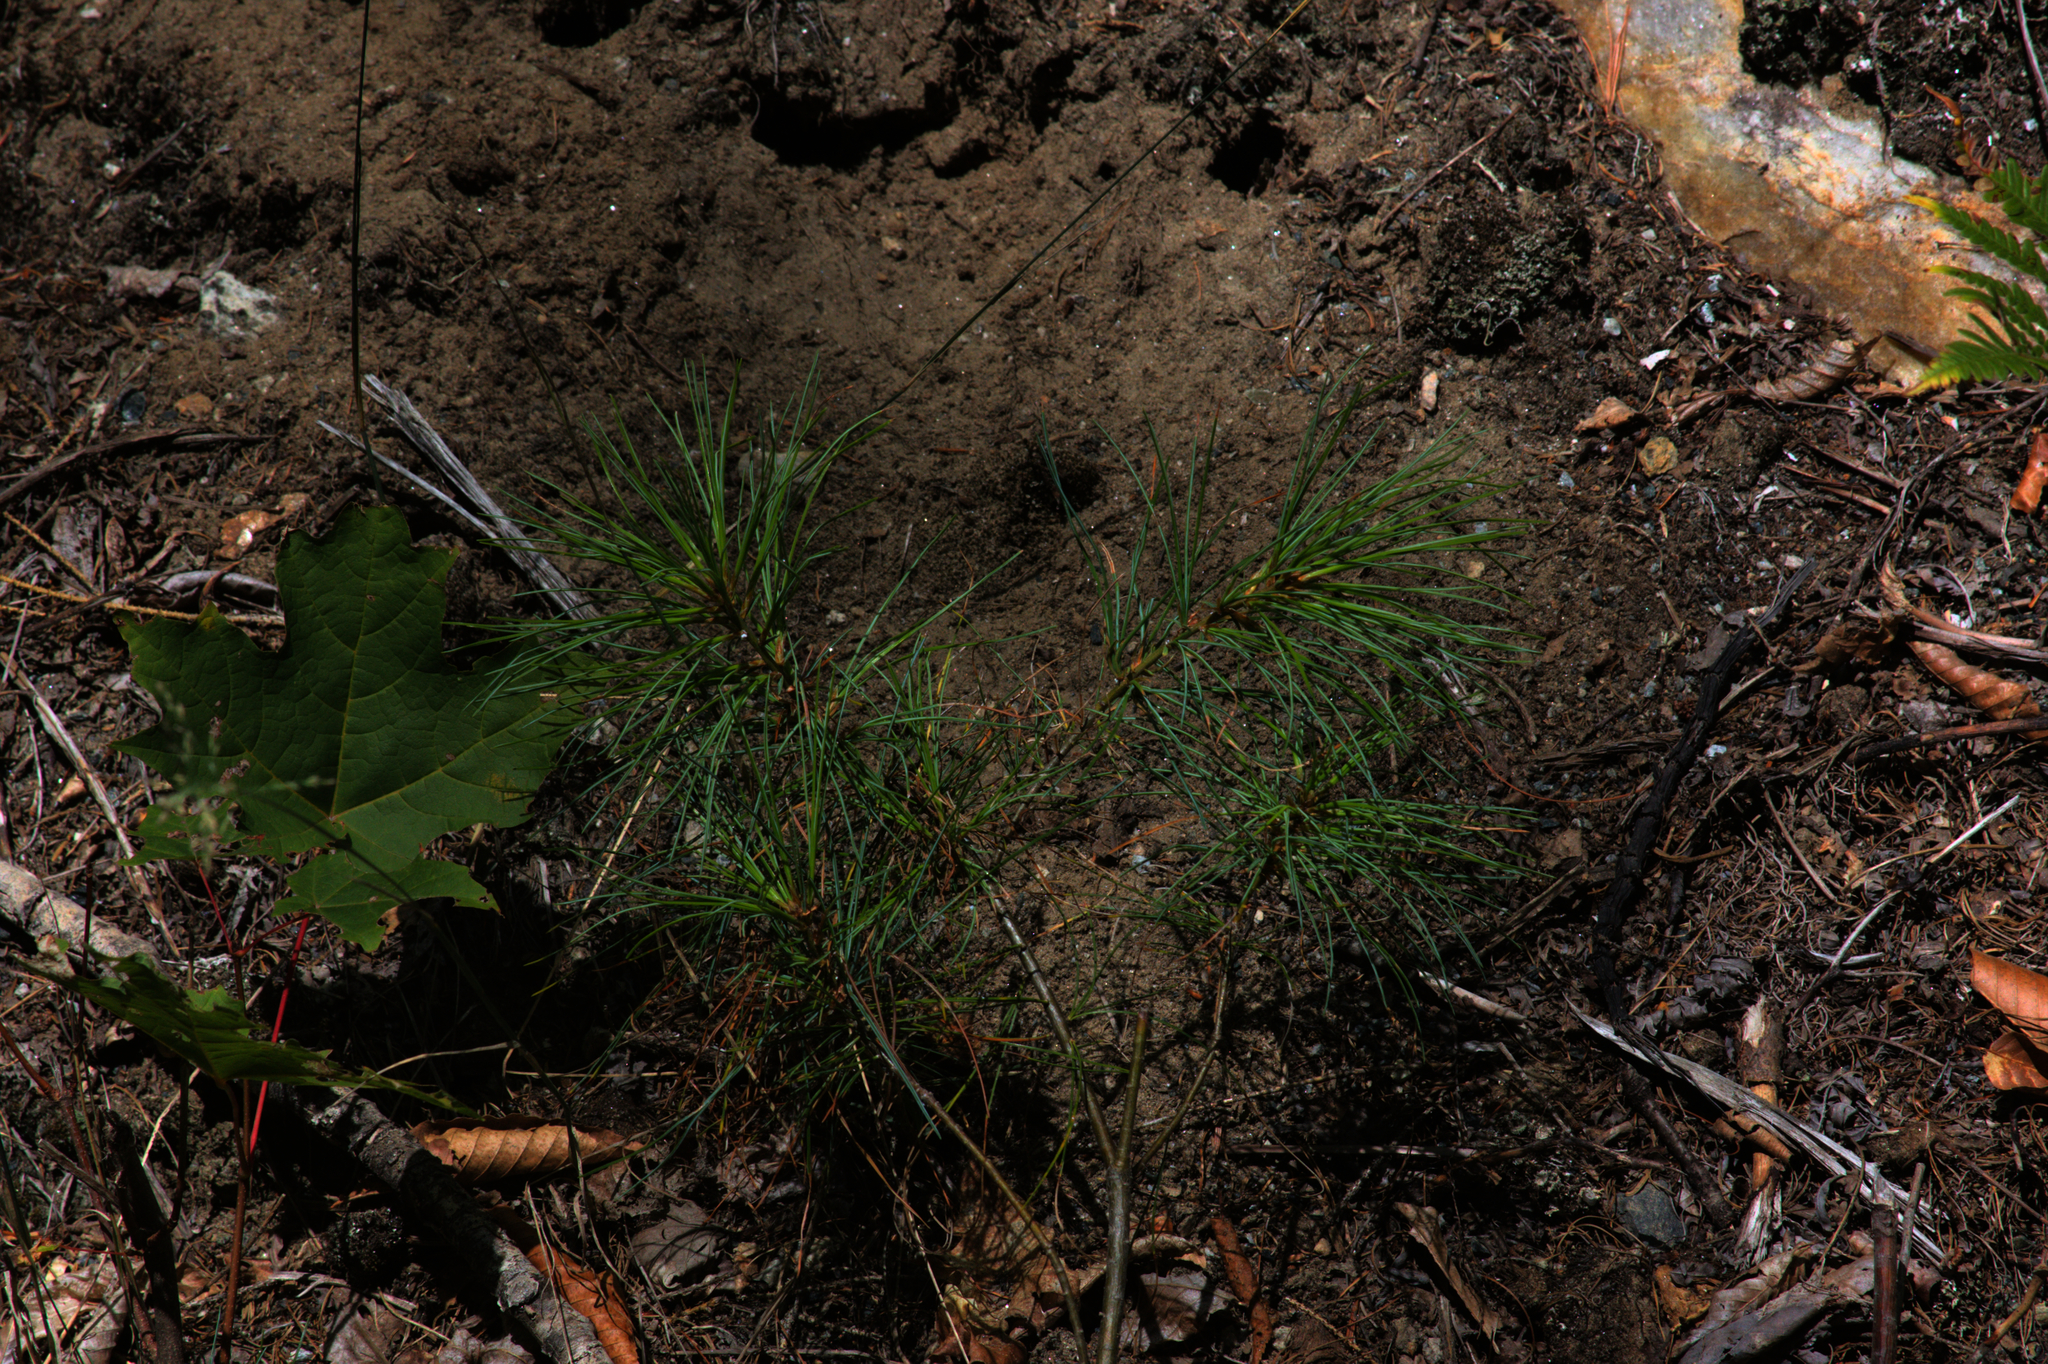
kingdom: Plantae
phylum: Tracheophyta
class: Pinopsida
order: Pinales
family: Pinaceae
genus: Pinus
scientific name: Pinus strobus
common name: Weymouth pine
